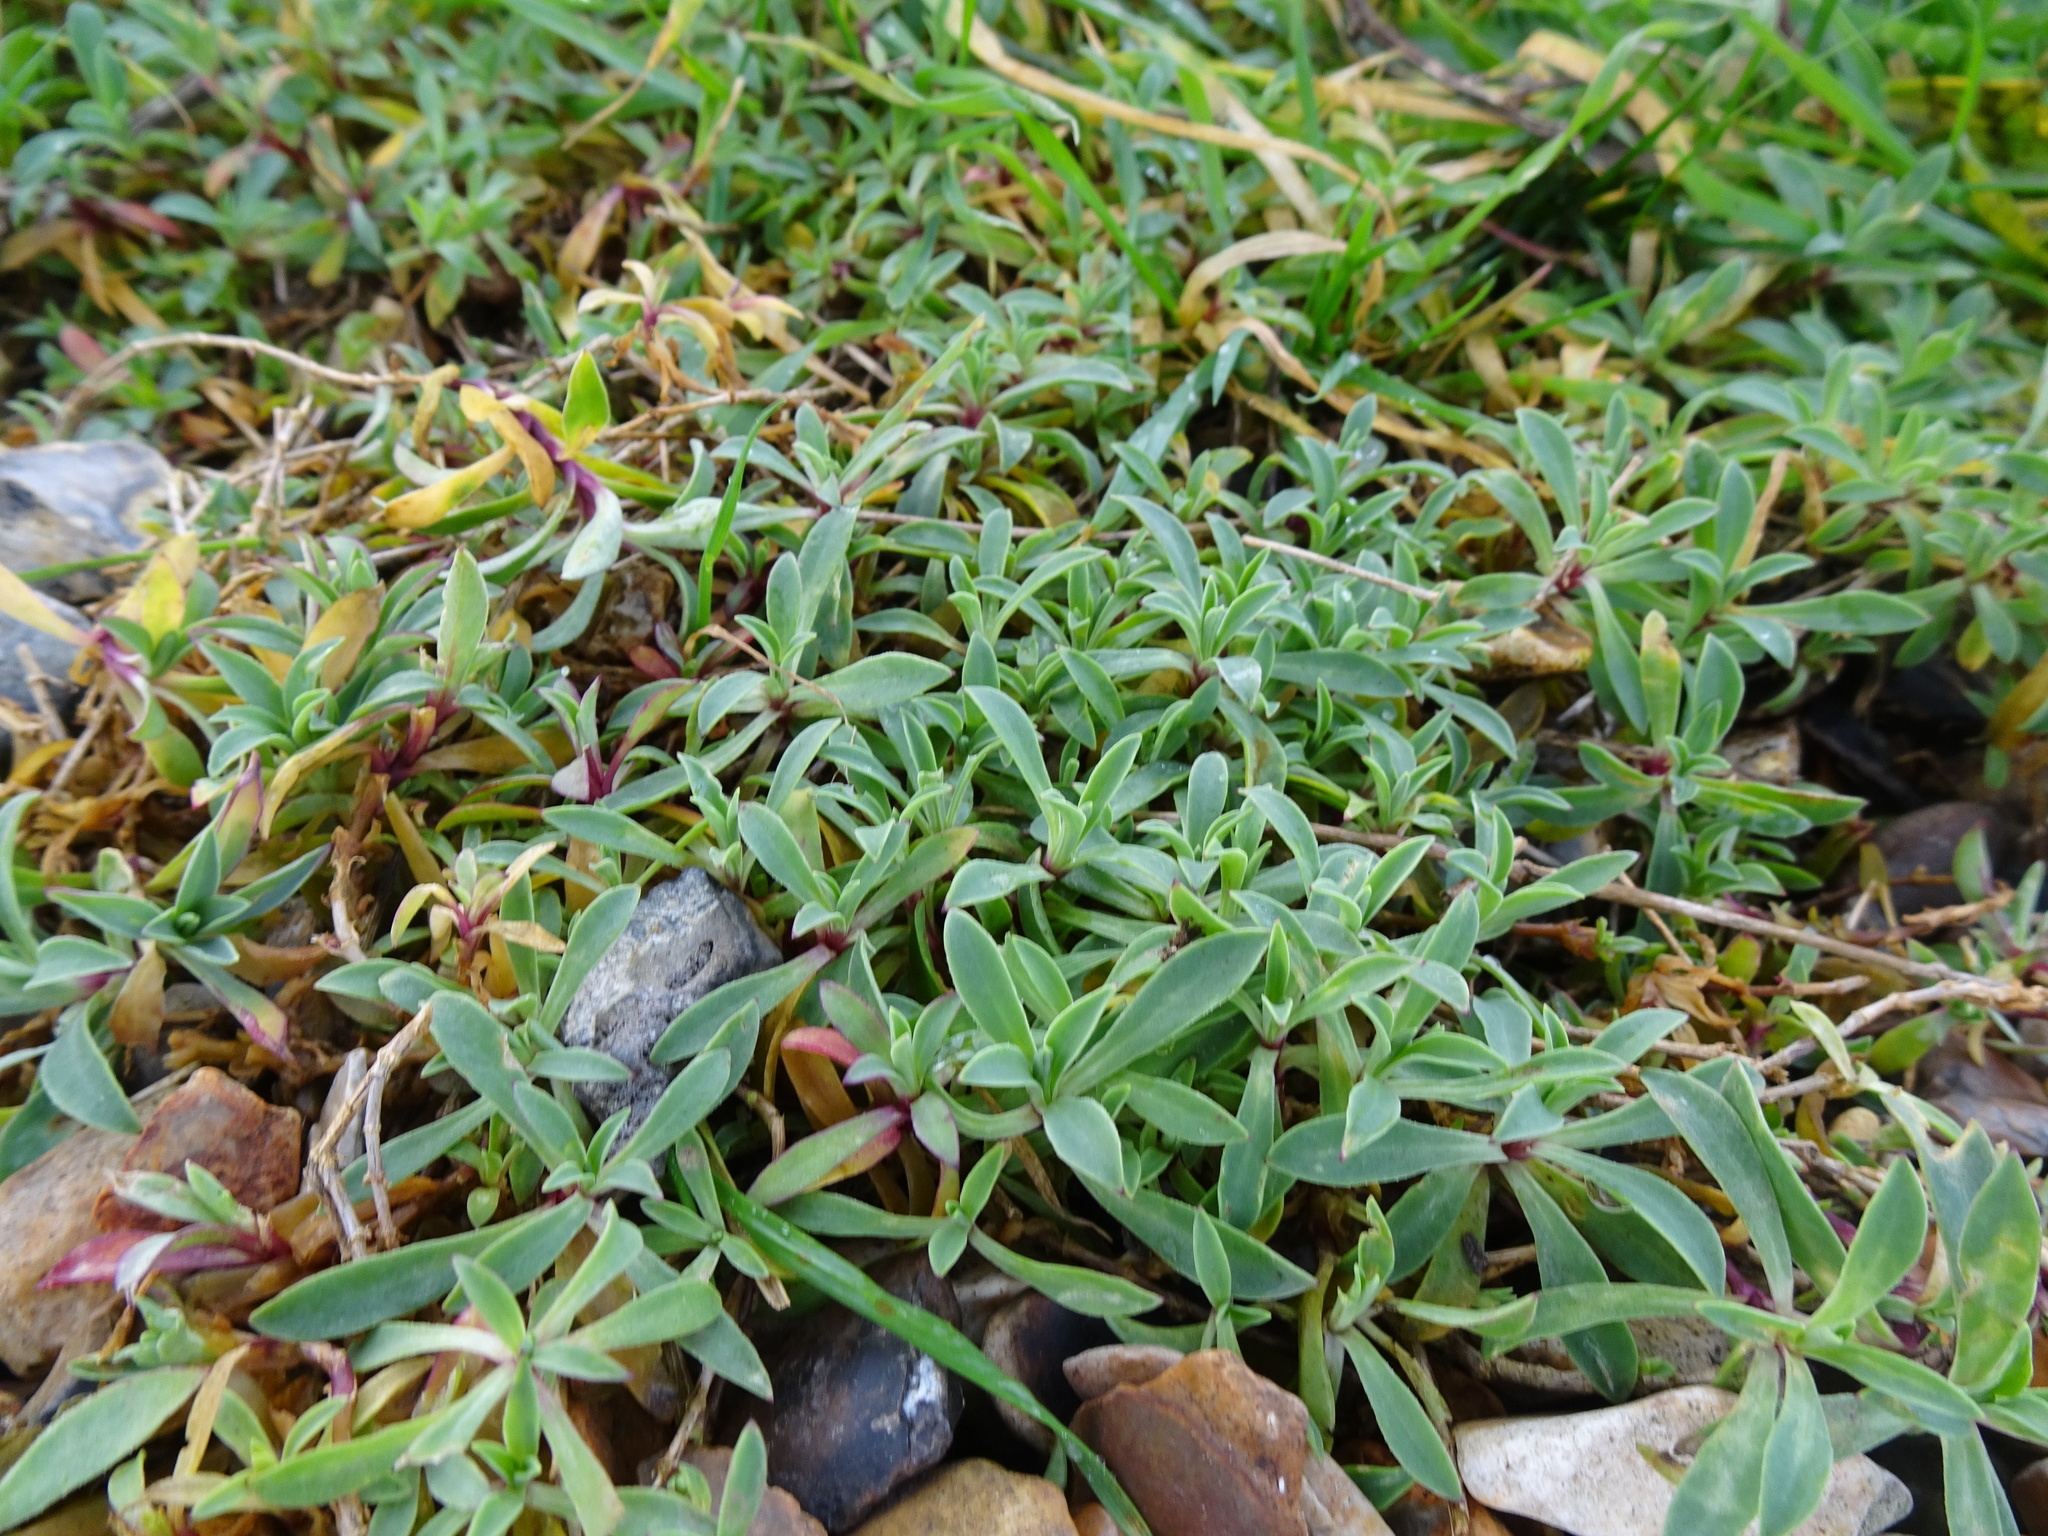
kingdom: Plantae
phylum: Tracheophyta
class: Magnoliopsida
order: Caryophyllales
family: Caryophyllaceae
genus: Silene
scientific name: Silene uniflora
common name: Sea campion
